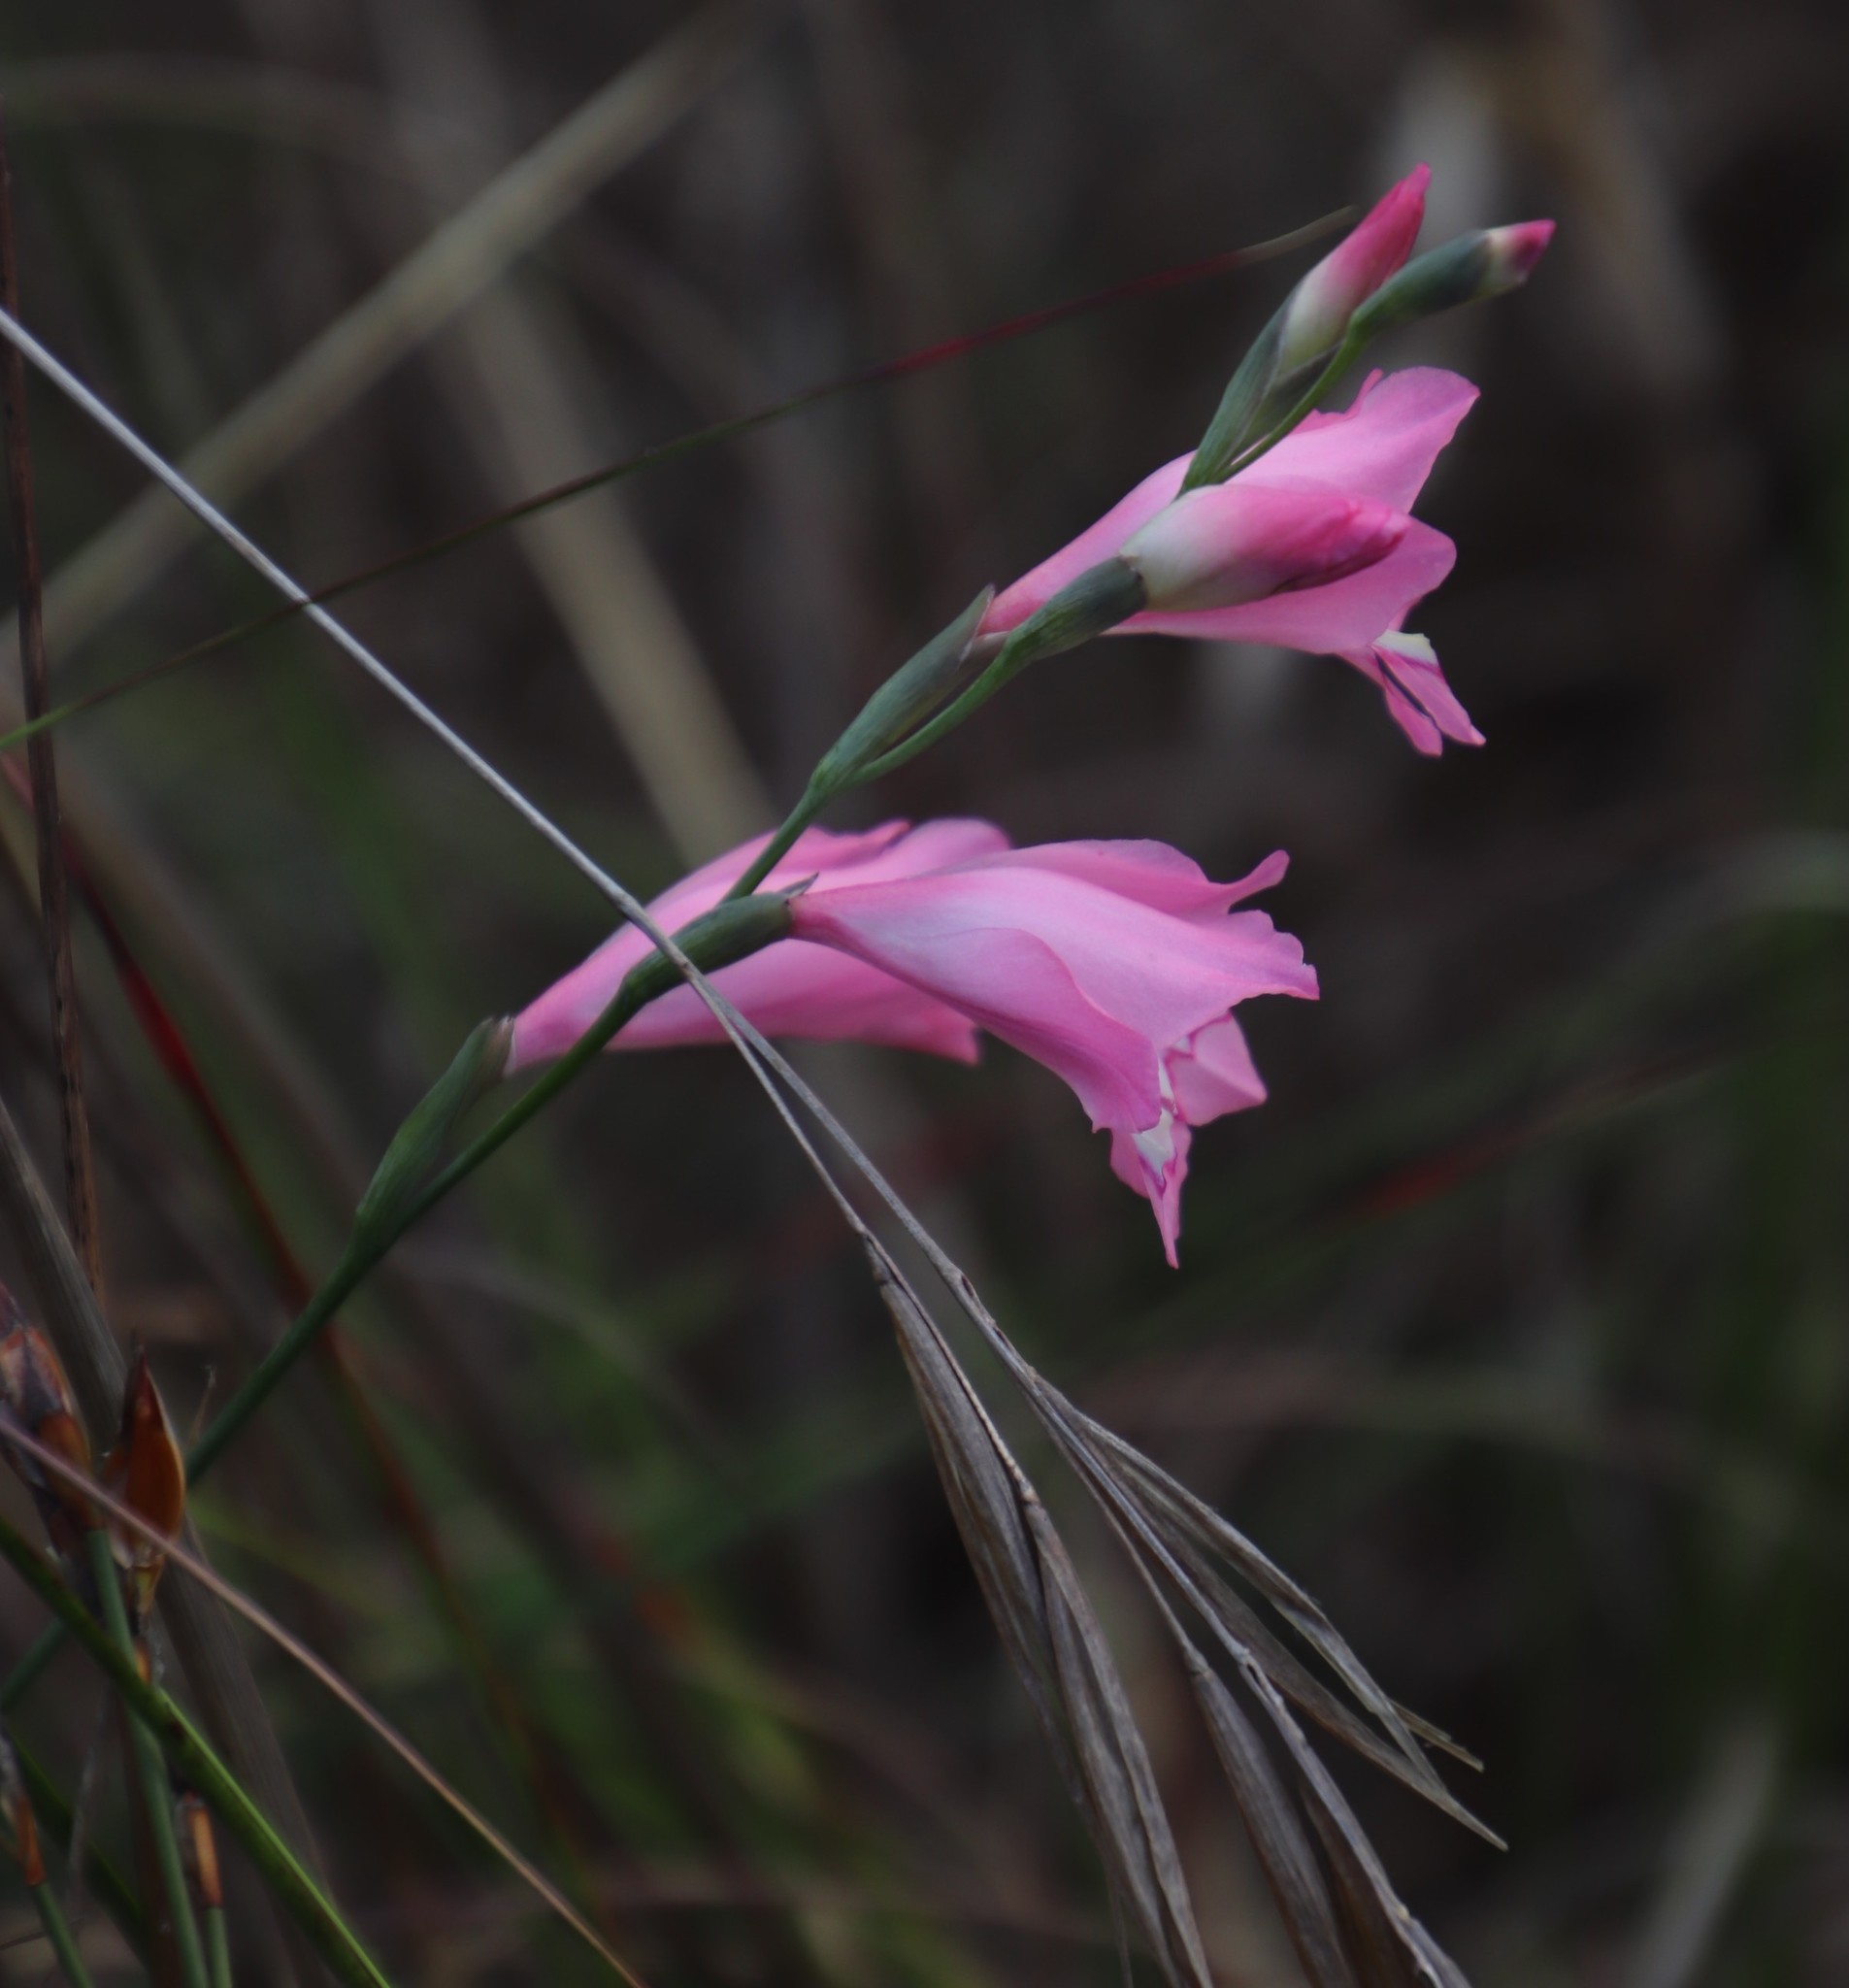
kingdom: Plantae
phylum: Tracheophyta
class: Liliopsida
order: Asparagales
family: Iridaceae
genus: Gladiolus
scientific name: Gladiolus brevifolius
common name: March pypie
